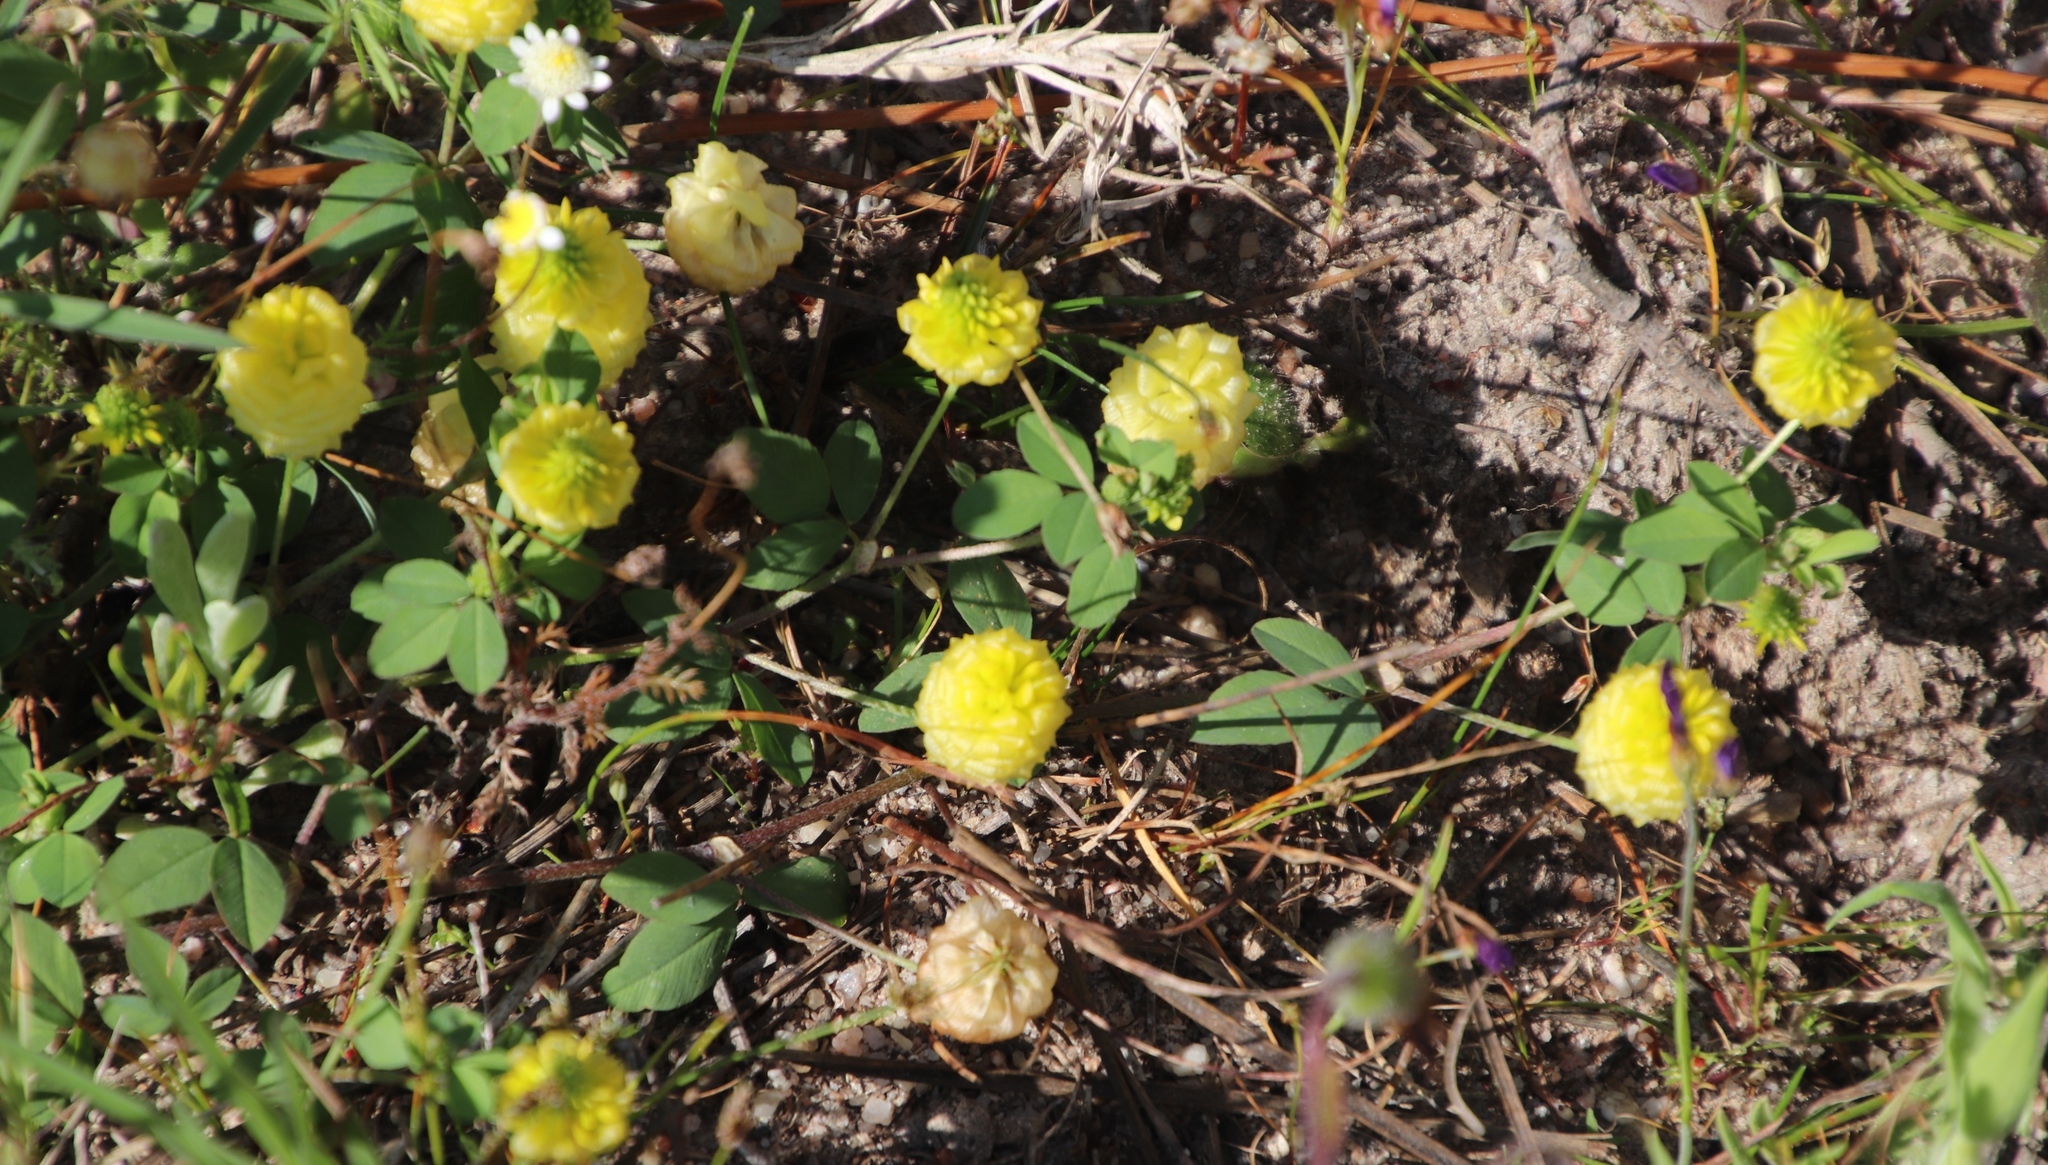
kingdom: Plantae
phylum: Tracheophyta
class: Magnoliopsida
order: Fabales
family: Fabaceae
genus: Trifolium
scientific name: Trifolium campestre
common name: Field clover
